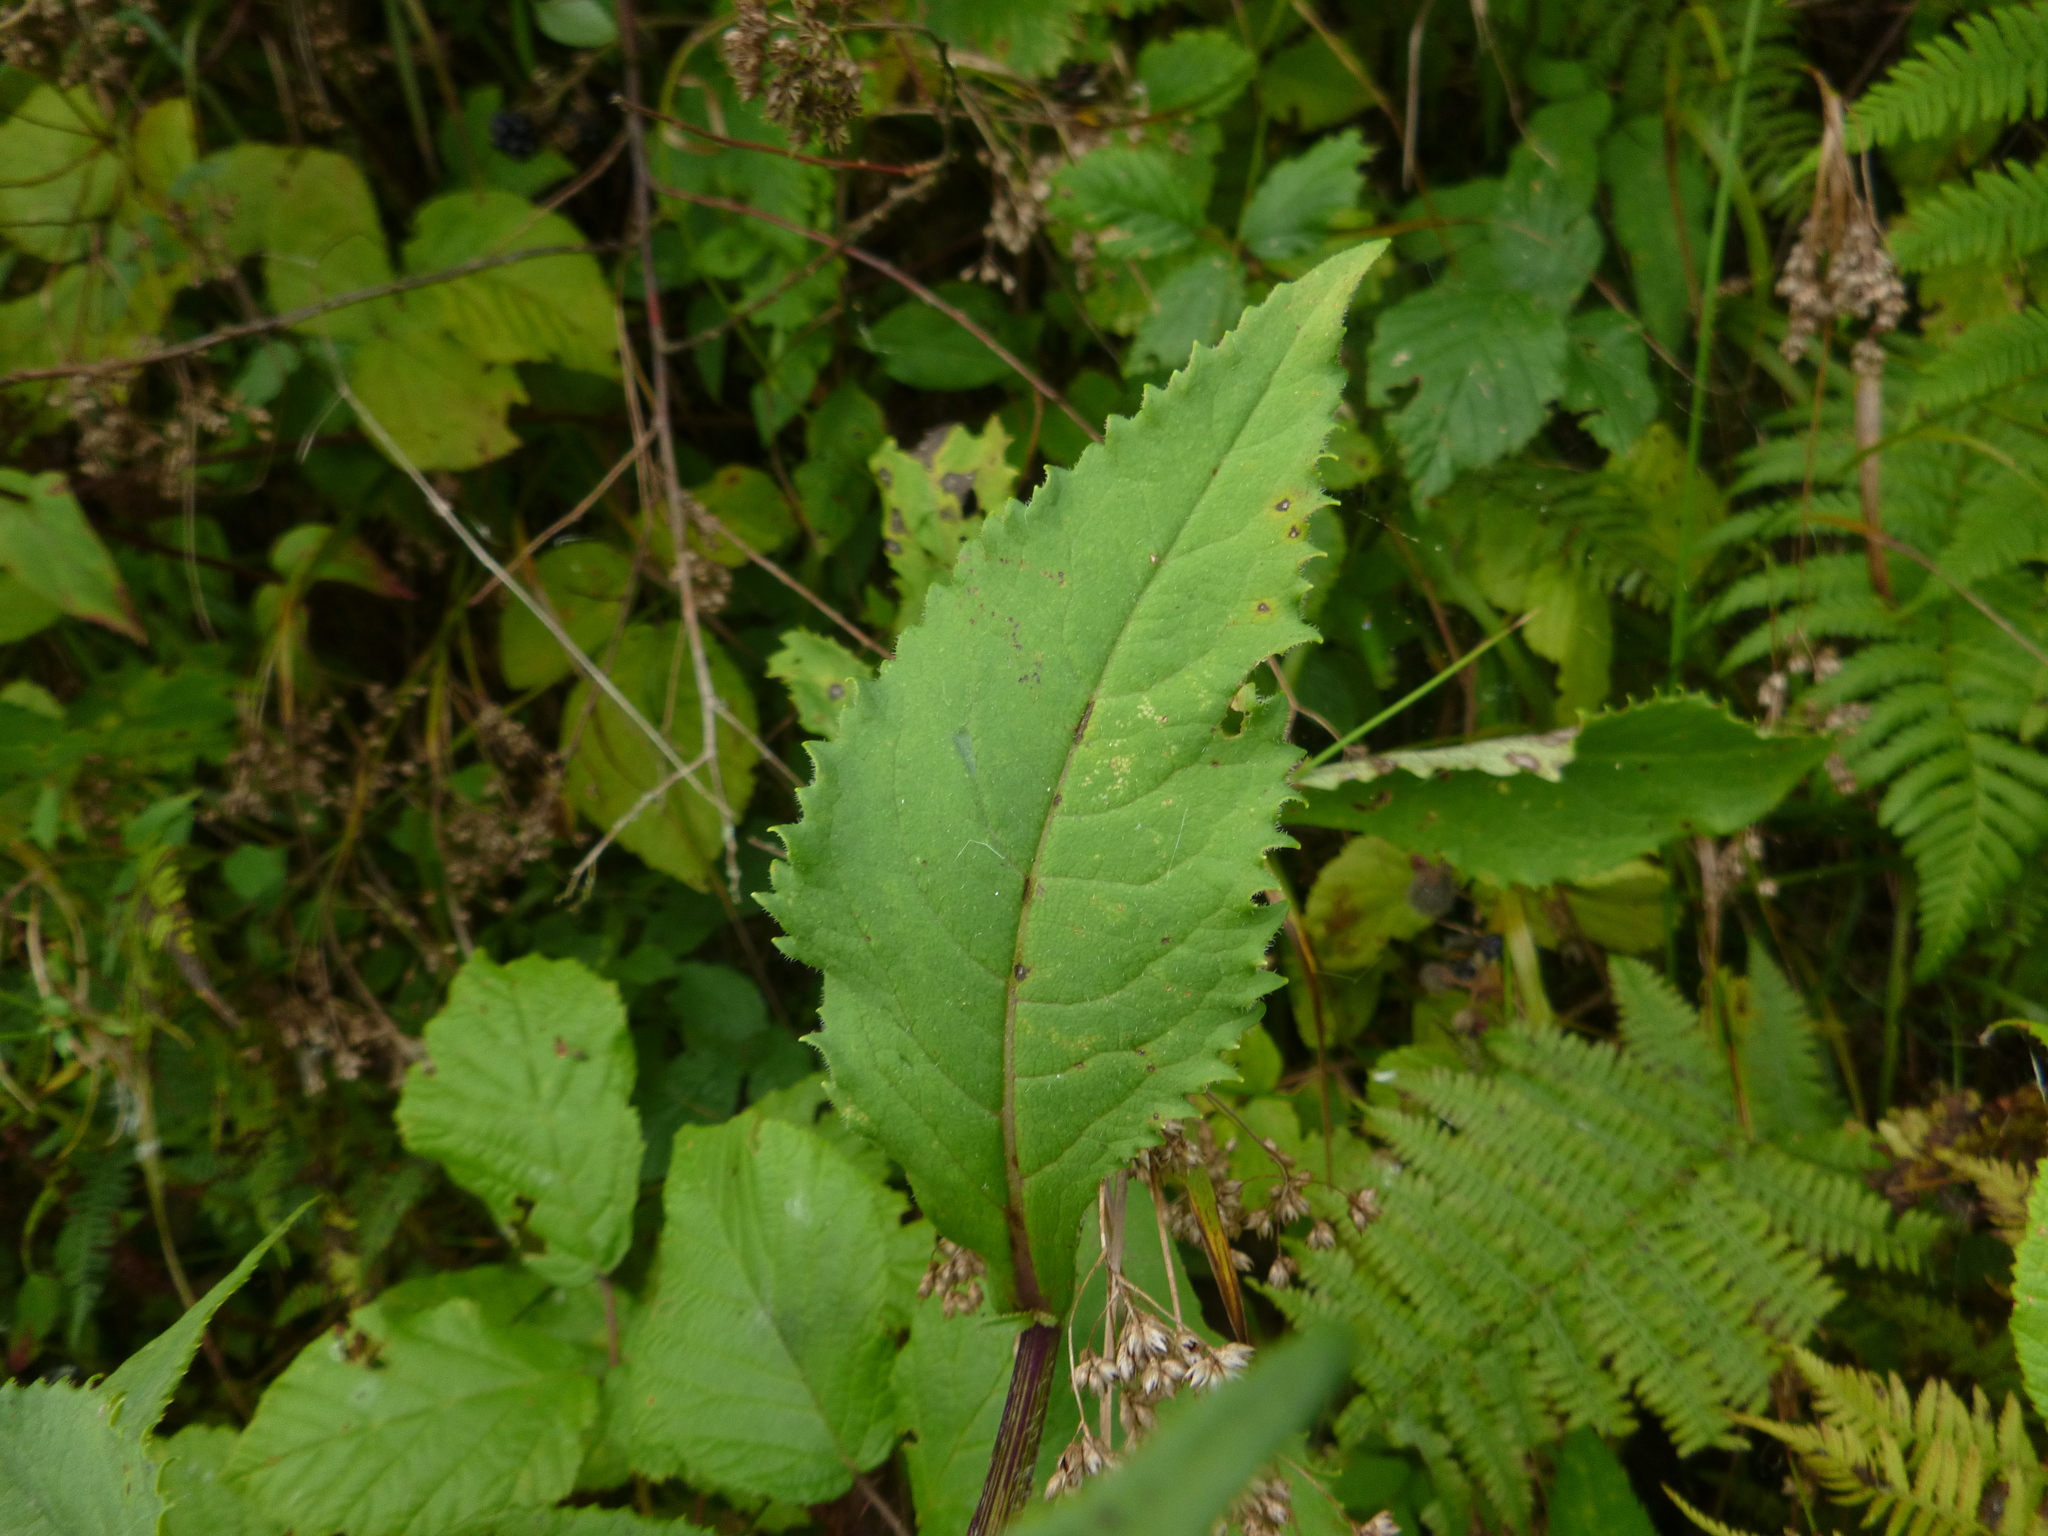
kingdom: Plantae
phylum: Tracheophyta
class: Magnoliopsida
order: Asterales
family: Asteraceae
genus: Senecio
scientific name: Senecio ovatus
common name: Wood ragwort
